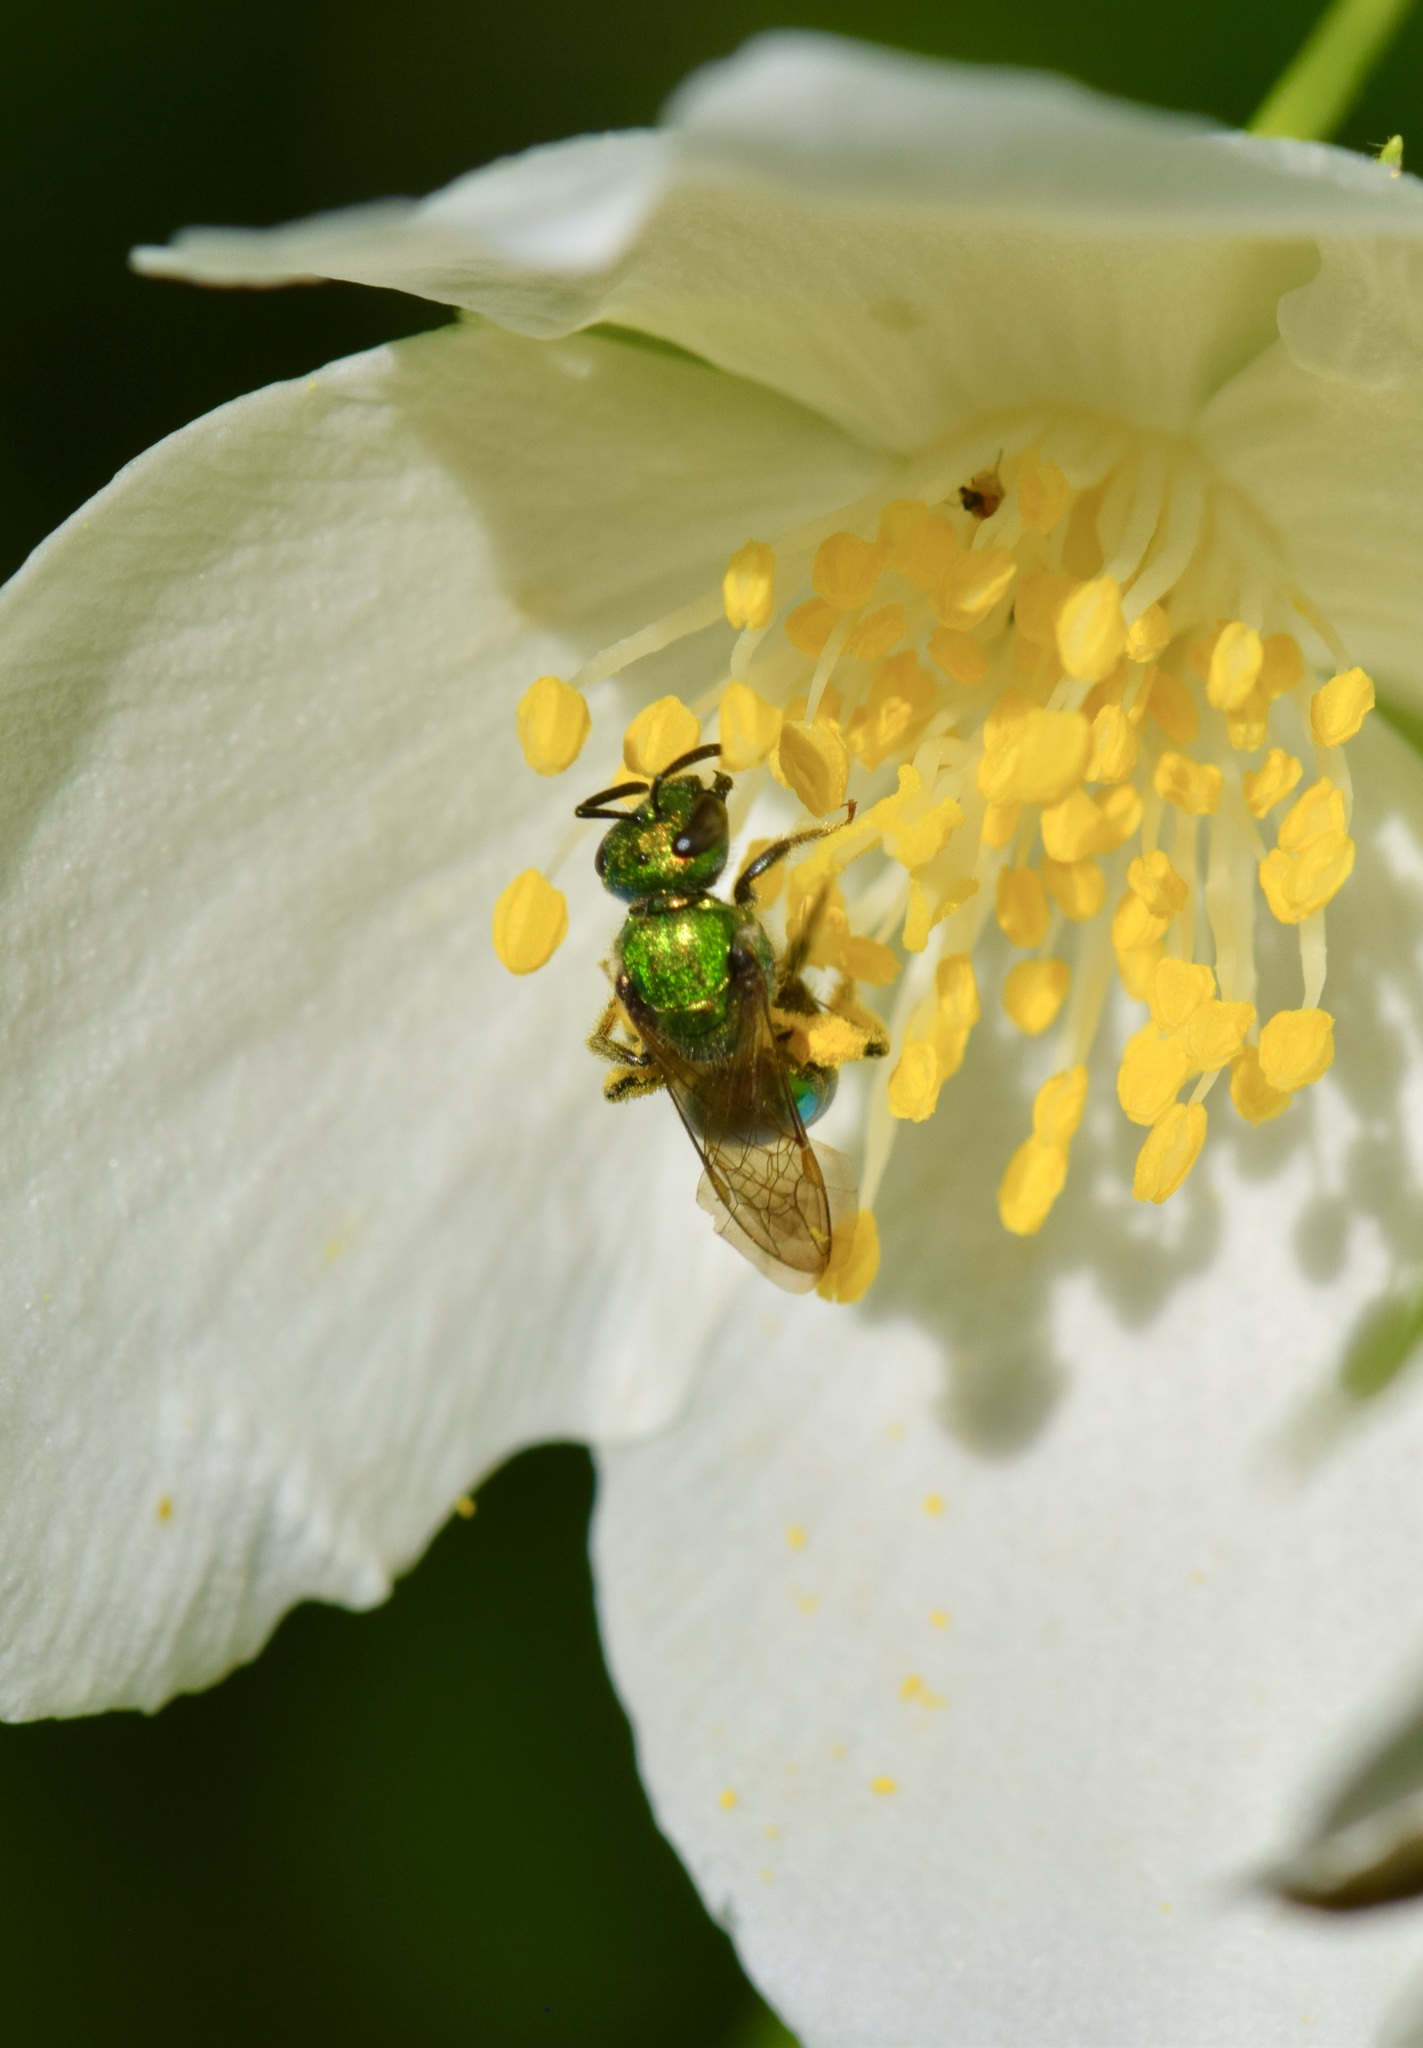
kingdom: Animalia
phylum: Arthropoda
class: Insecta
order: Hymenoptera
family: Halictidae
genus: Augochlora
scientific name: Augochlora pura
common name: Pure green sweat bee
